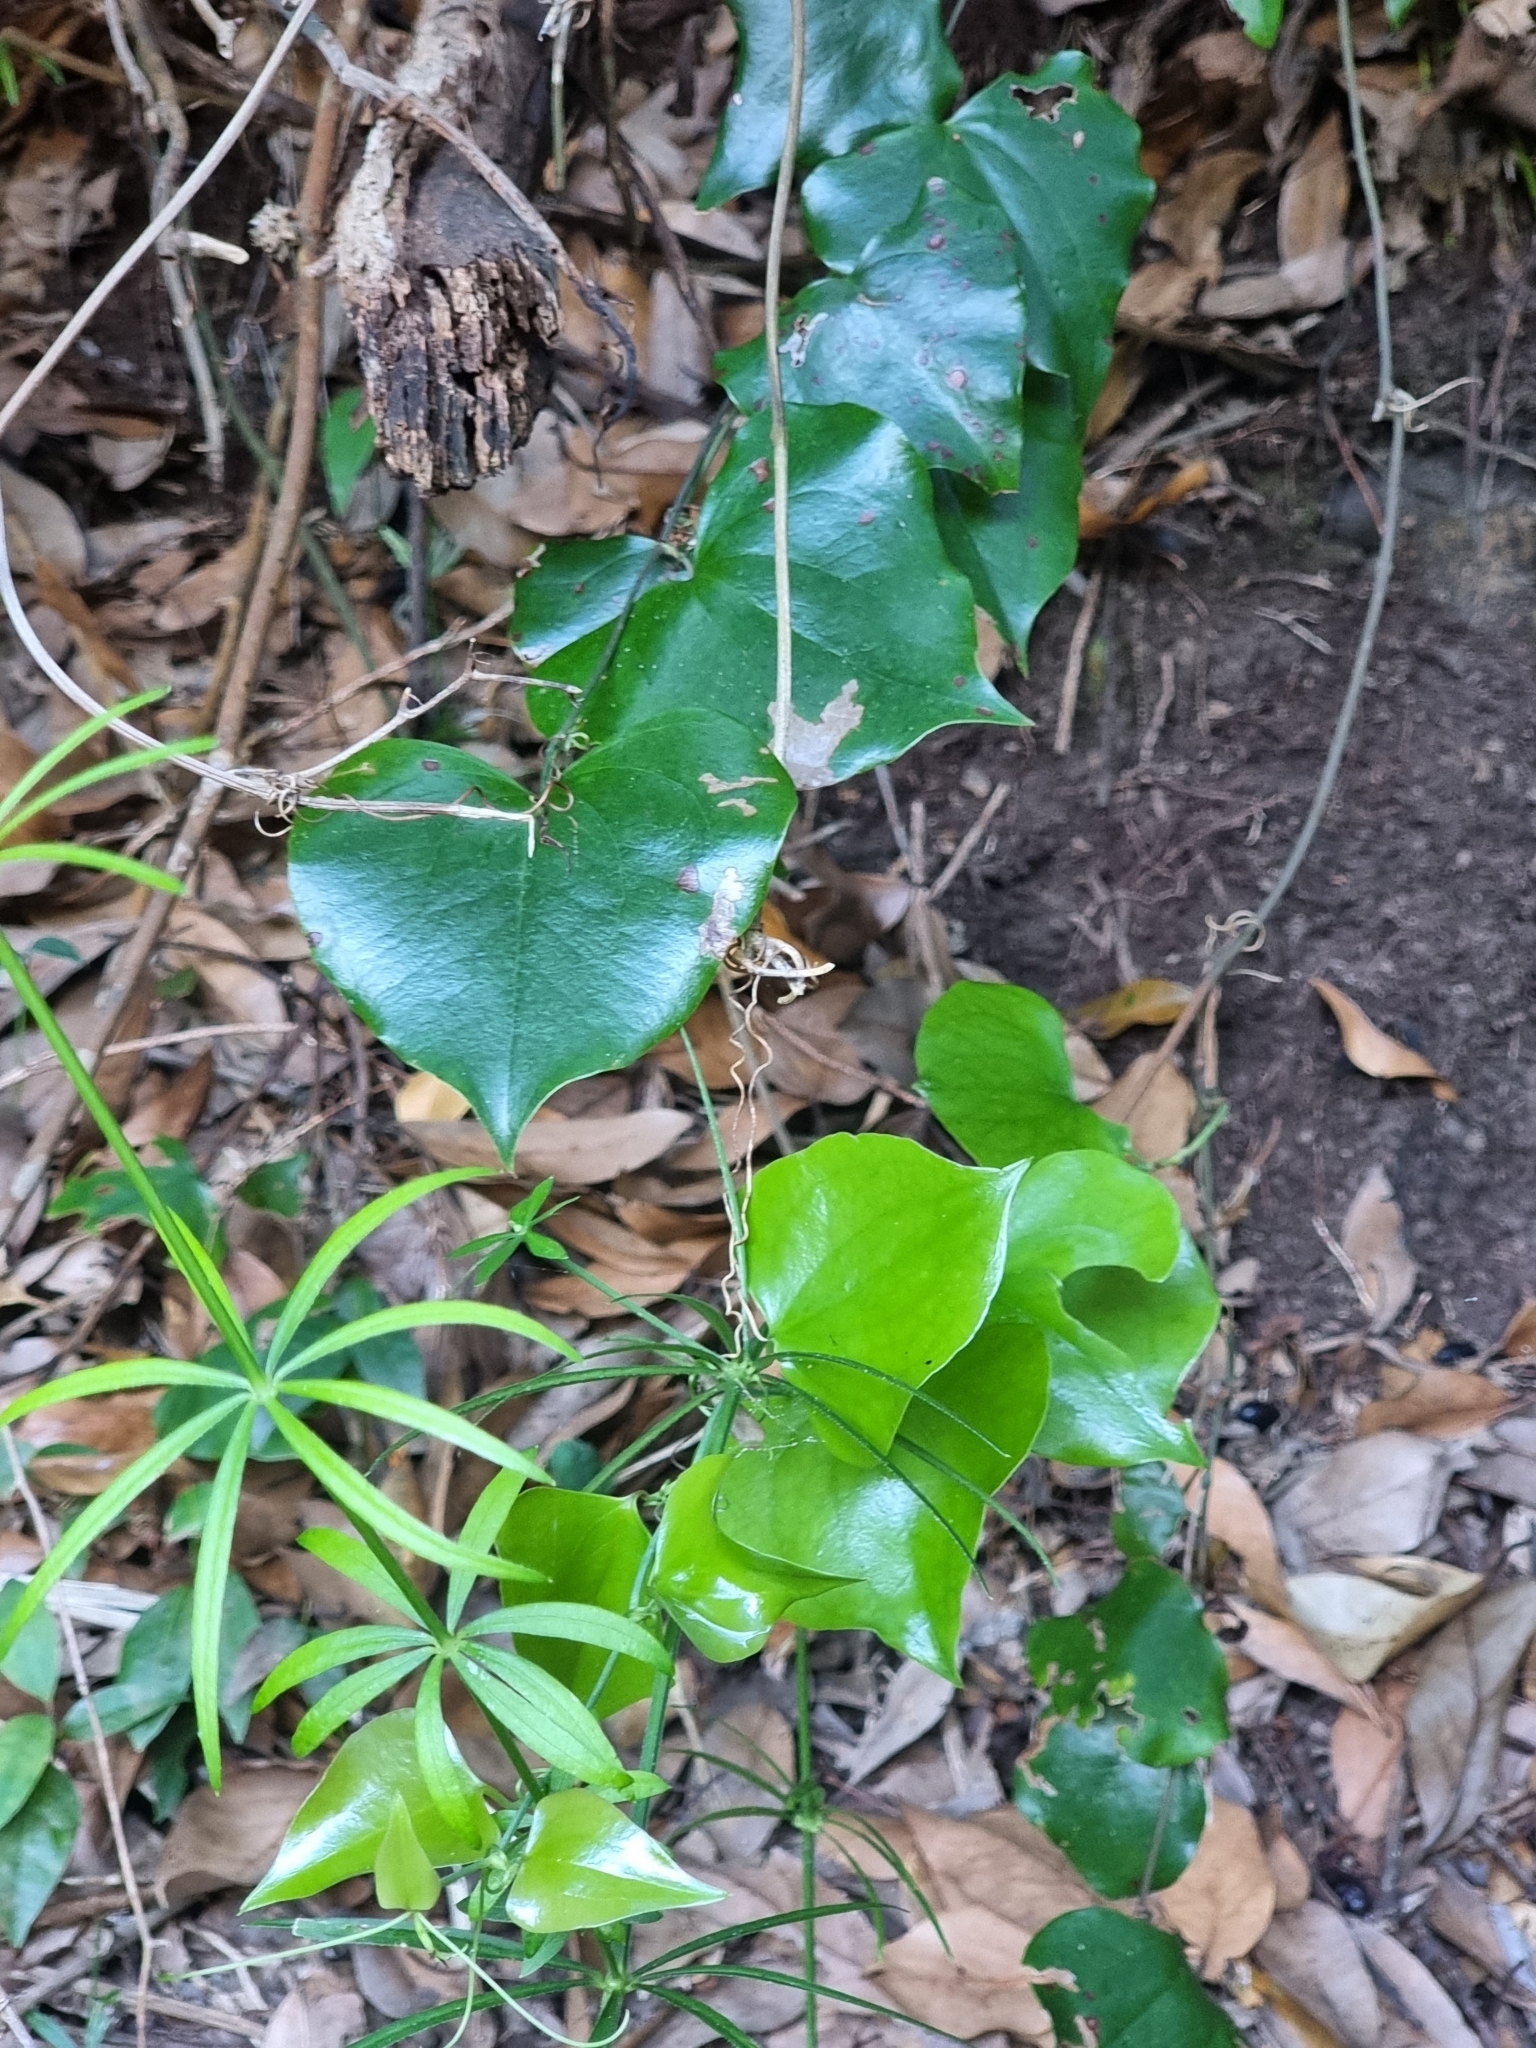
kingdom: Plantae
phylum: Tracheophyta
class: Liliopsida
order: Liliales
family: Smilacaceae
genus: Smilax
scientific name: Smilax aspera
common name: Common smilax
